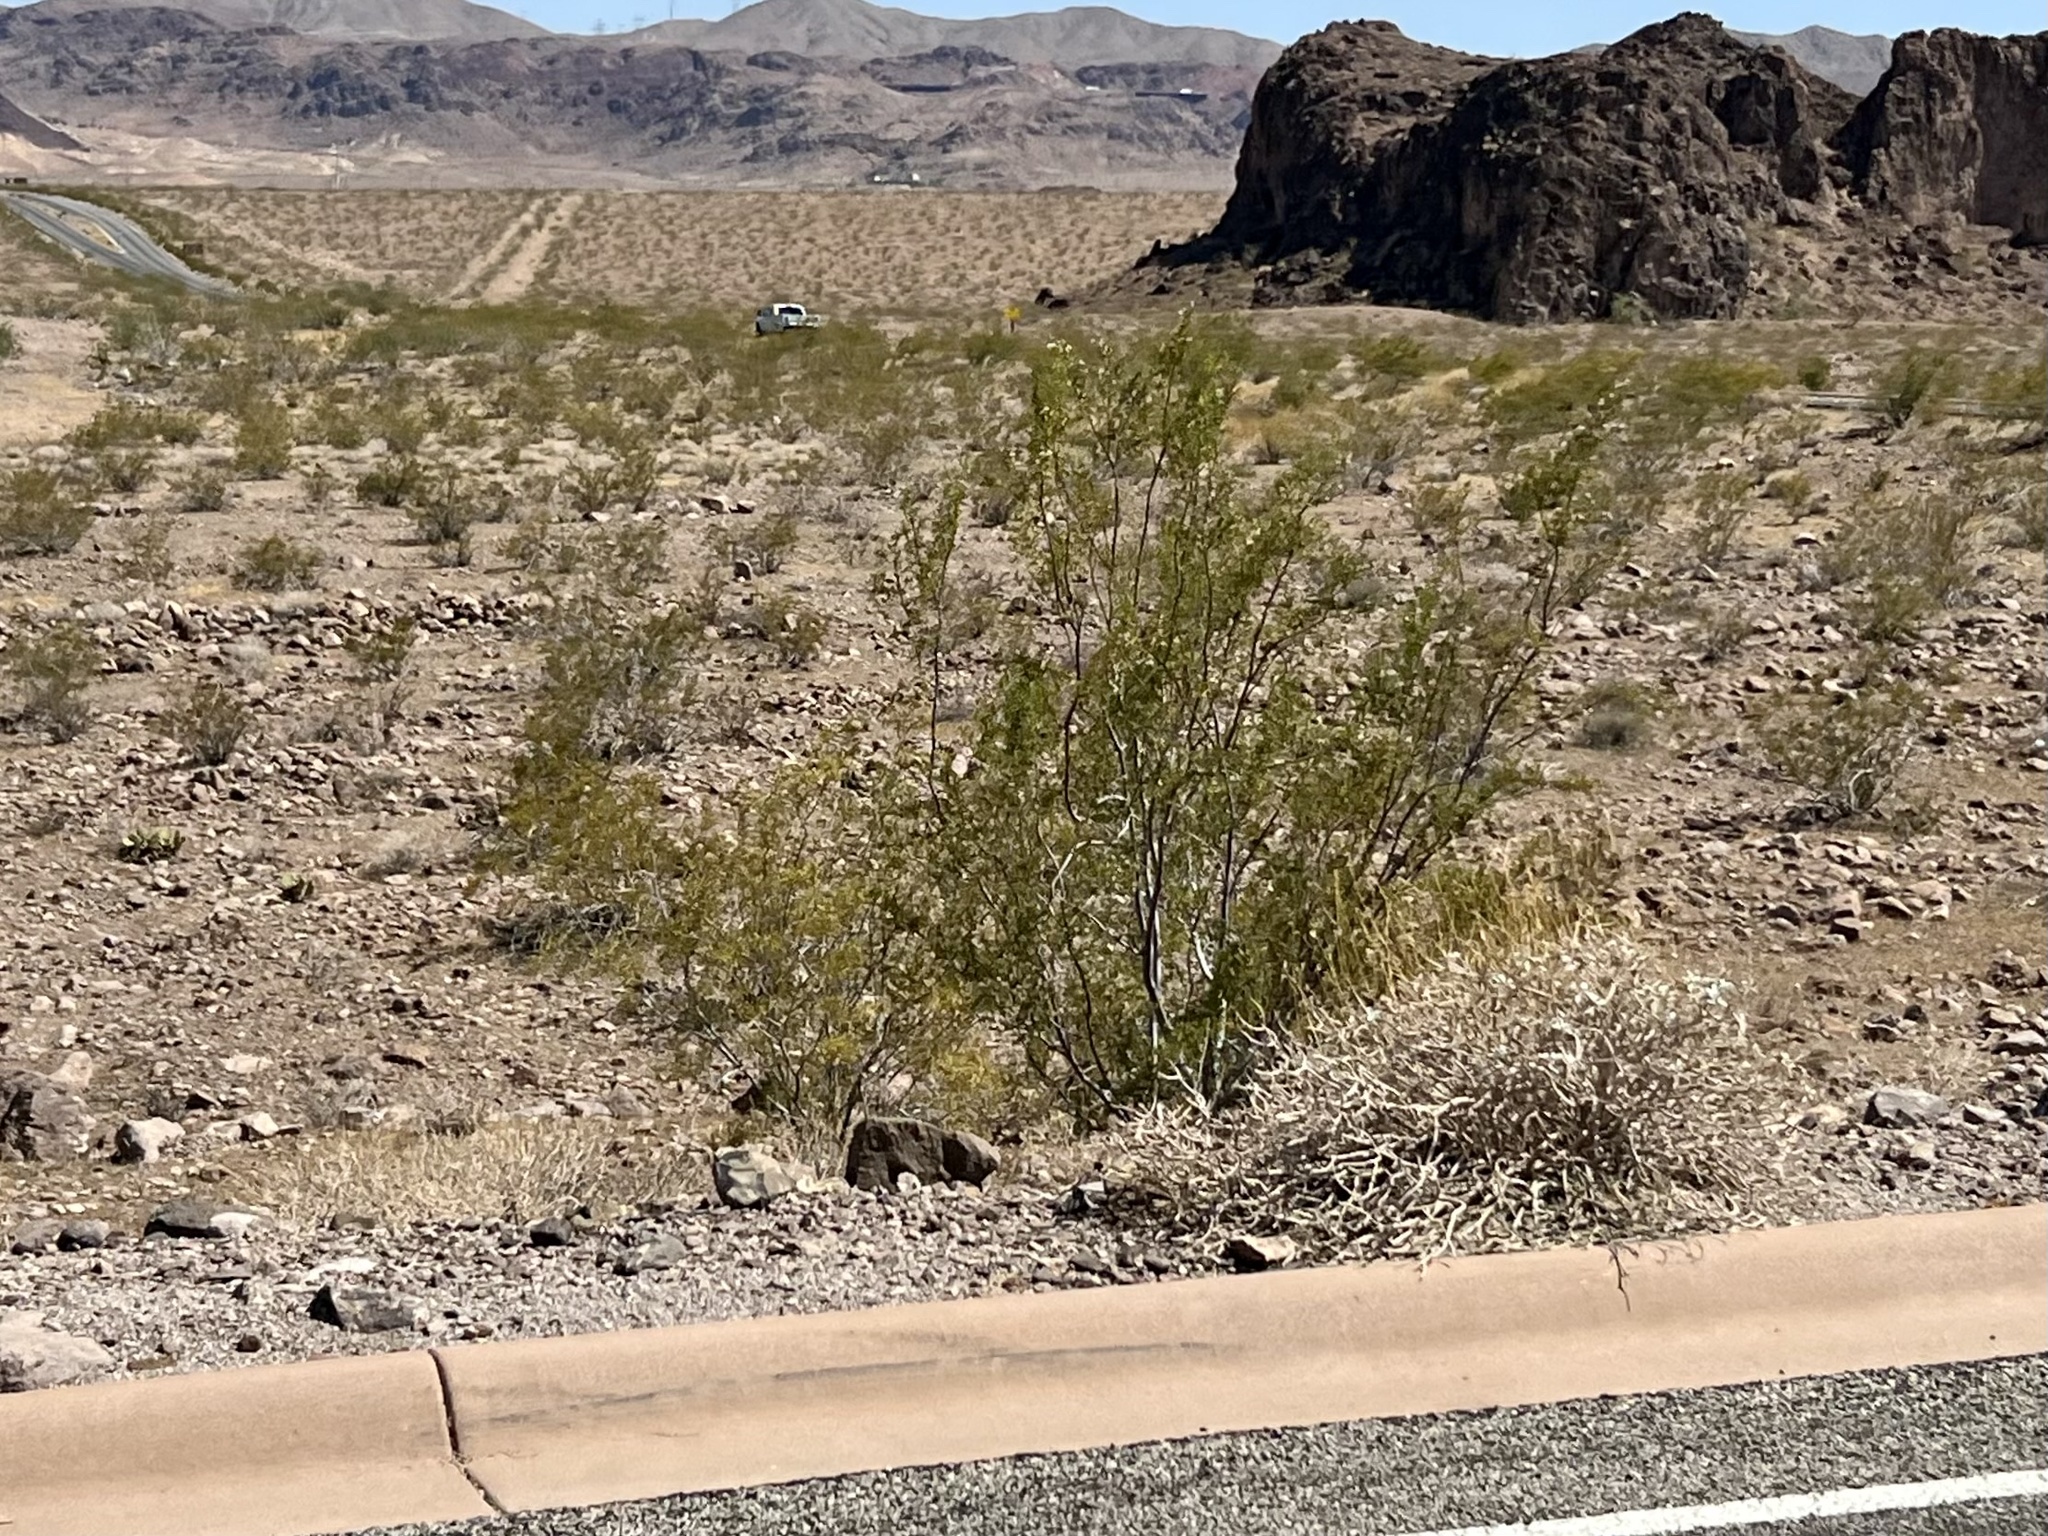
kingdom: Plantae
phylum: Tracheophyta
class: Magnoliopsida
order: Zygophyllales
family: Zygophyllaceae
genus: Larrea
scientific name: Larrea tridentata
